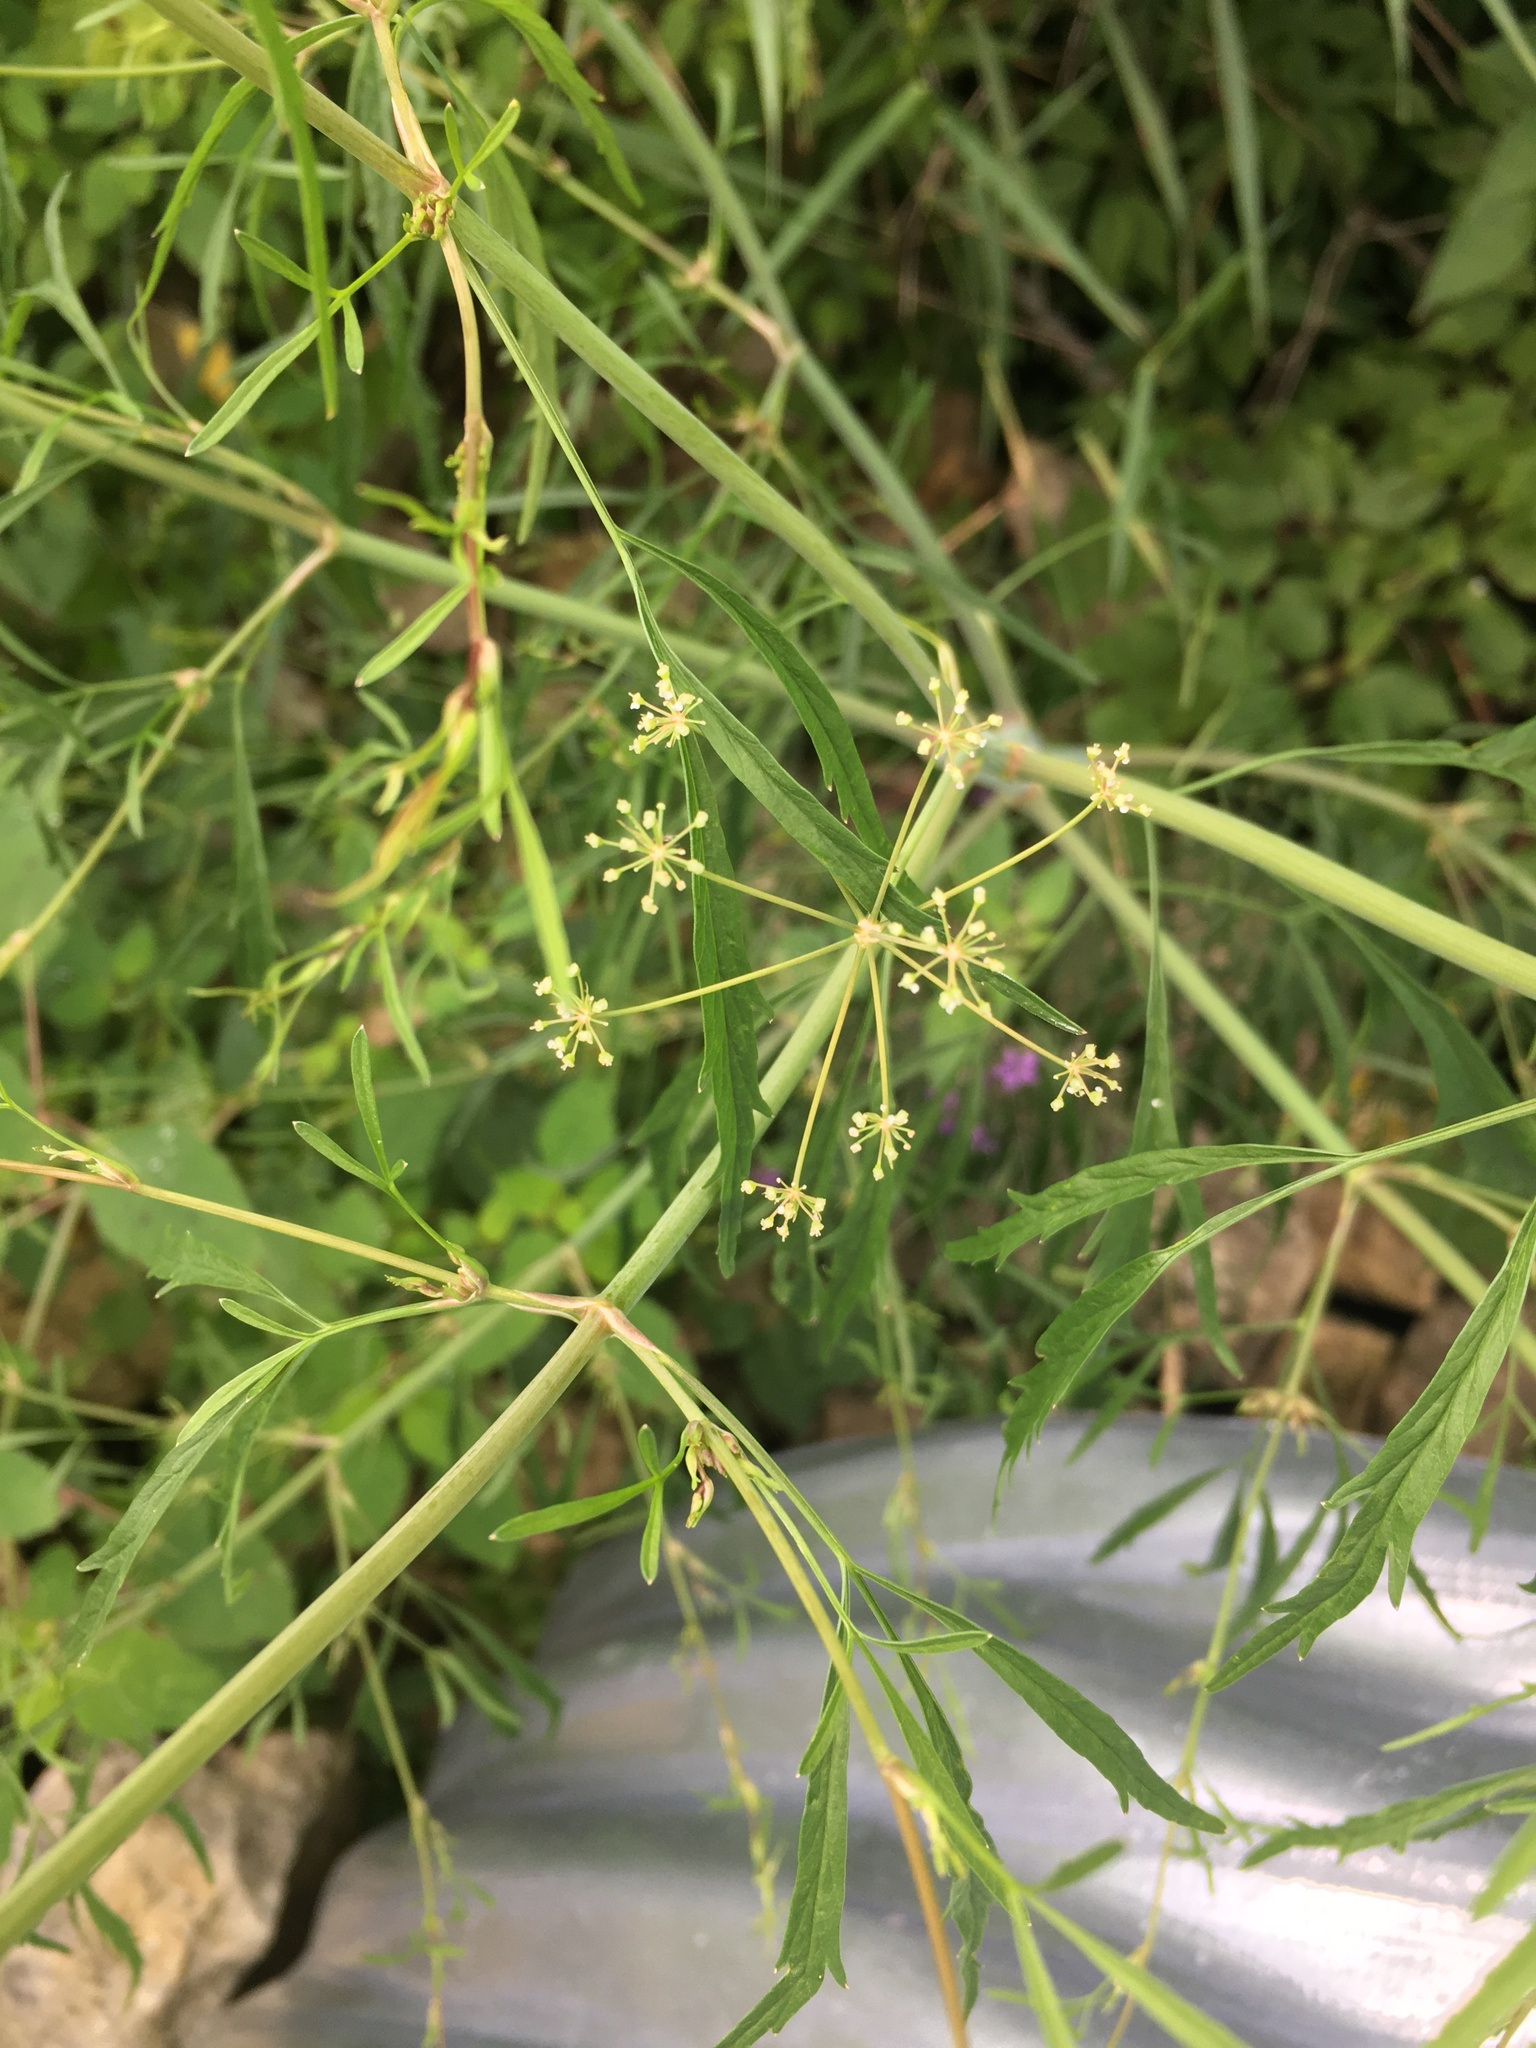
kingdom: Plantae
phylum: Tracheophyta
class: Magnoliopsida
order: Apiales
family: Apiaceae
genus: Cicuta
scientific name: Cicuta bulbifera
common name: Bulb-bearing water-hemlock
